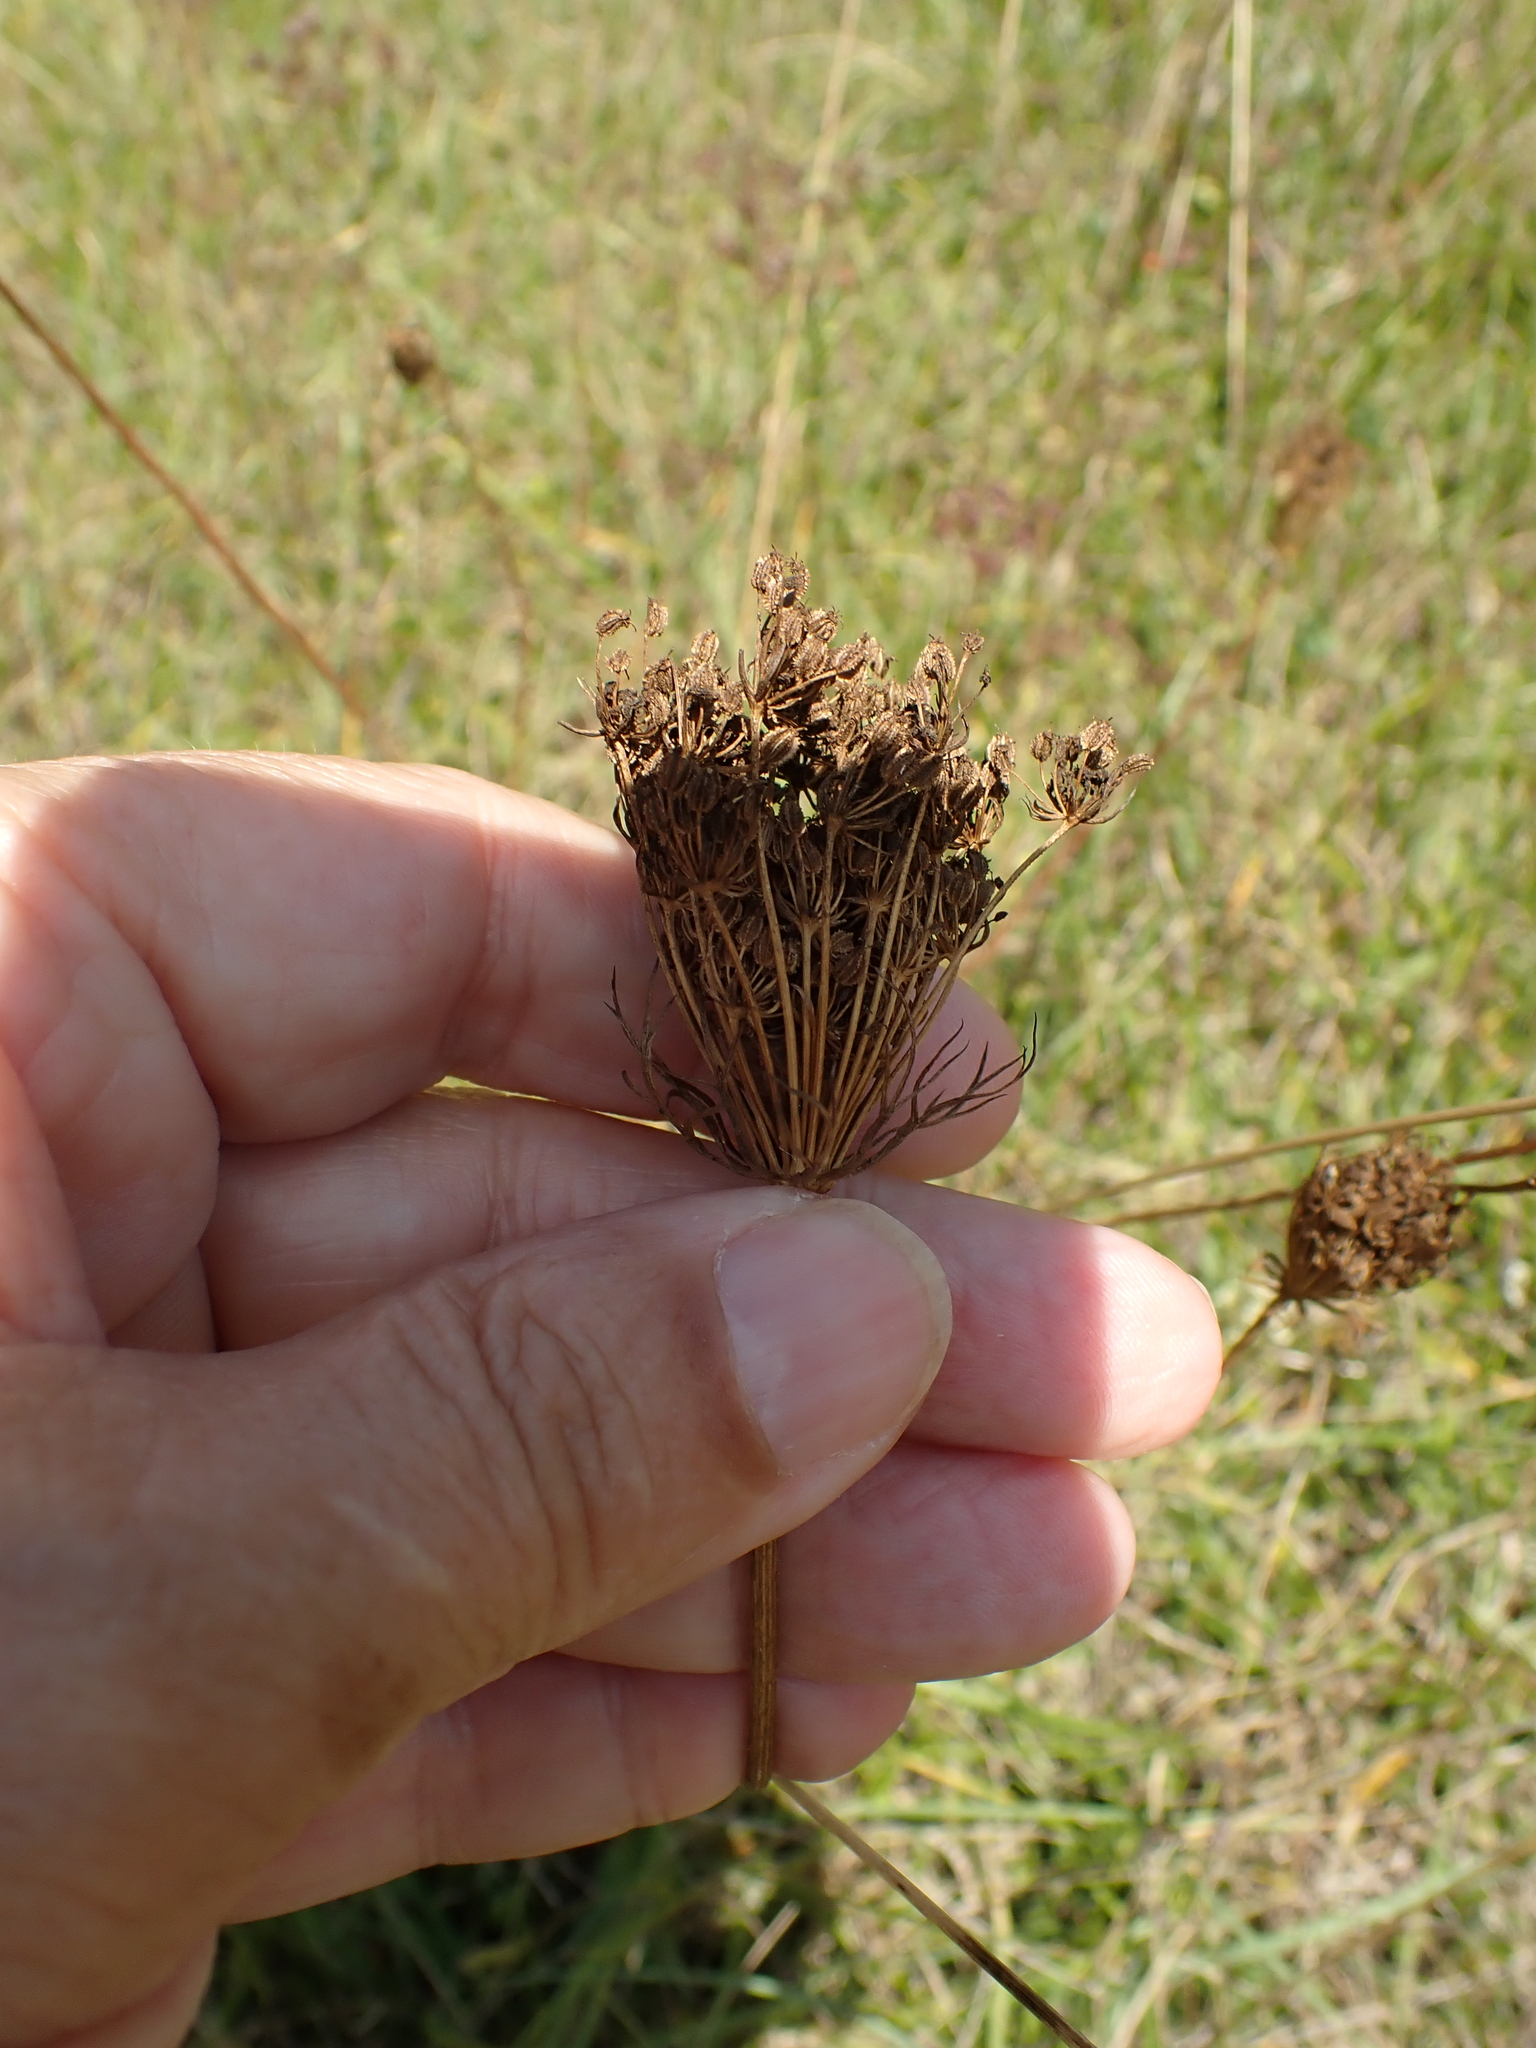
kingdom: Plantae
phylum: Tracheophyta
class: Magnoliopsida
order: Apiales
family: Apiaceae
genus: Daucus
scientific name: Daucus carota
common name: Wild carrot
